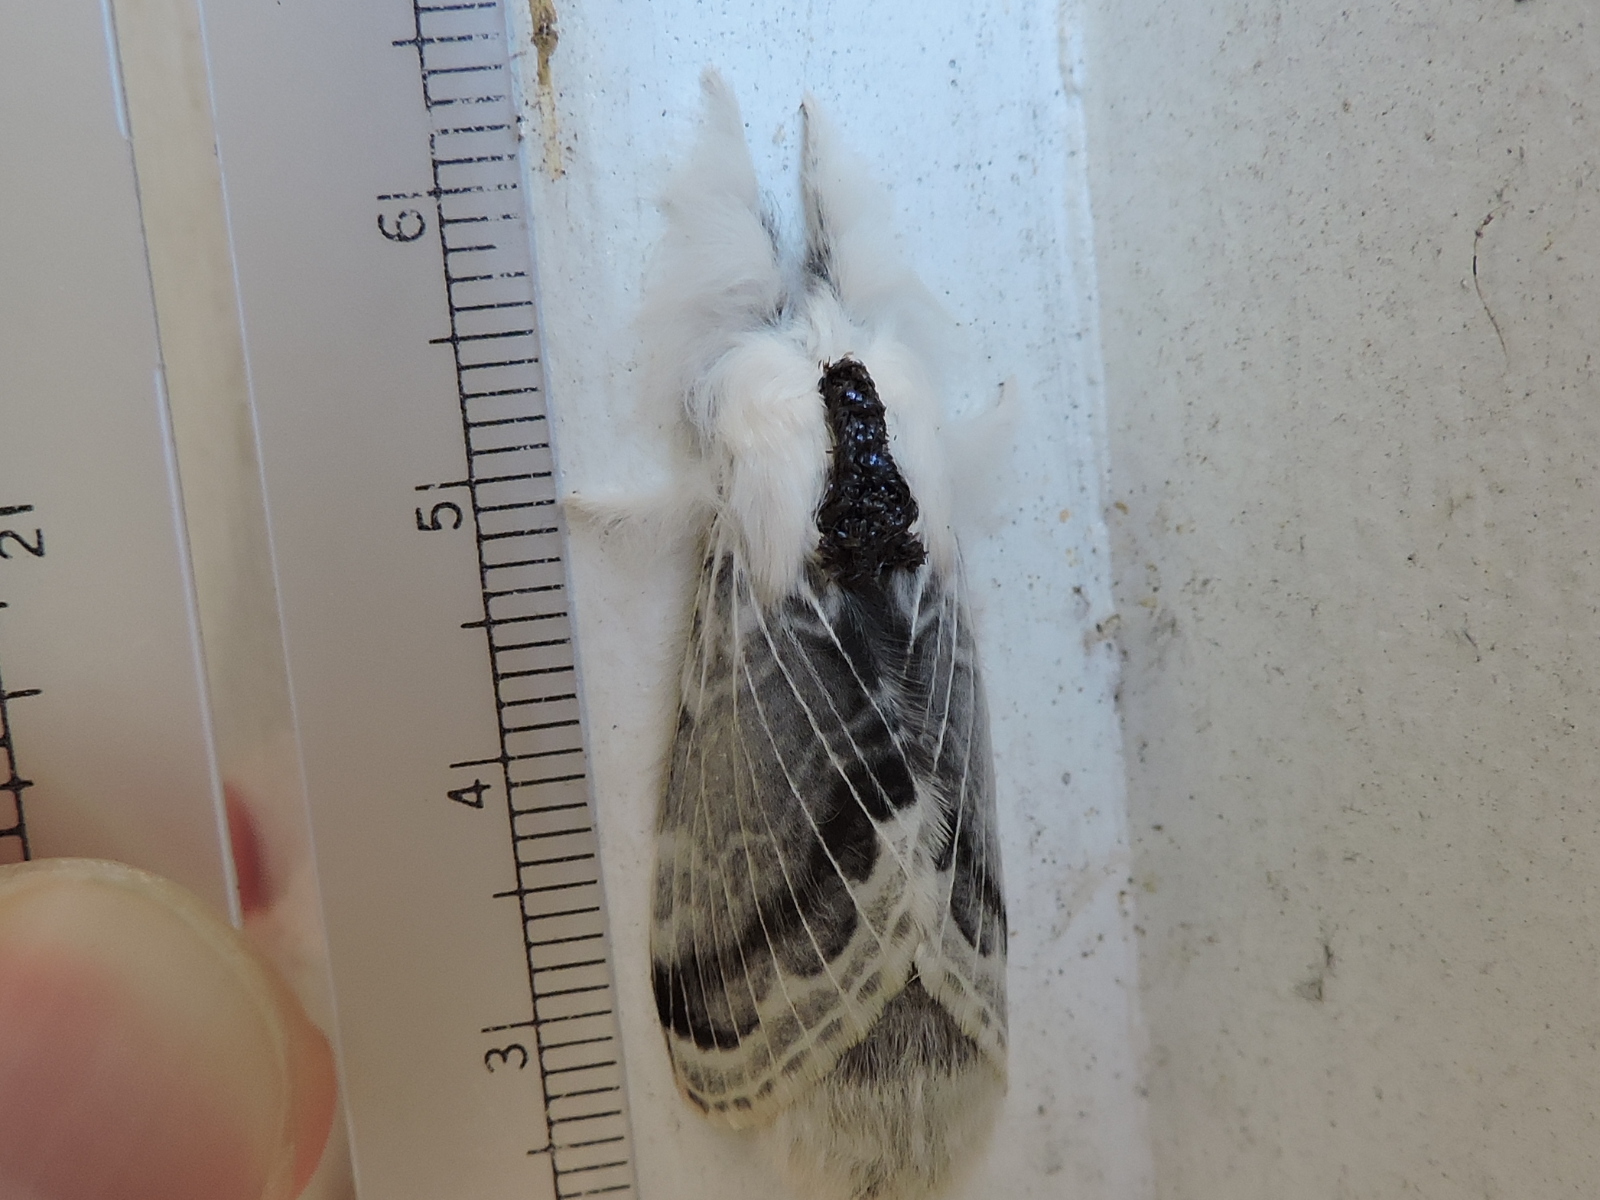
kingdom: Animalia
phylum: Arthropoda
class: Insecta
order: Lepidoptera
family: Lasiocampidae
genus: Tolype
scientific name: Tolype velleda
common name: Large tolype moth
